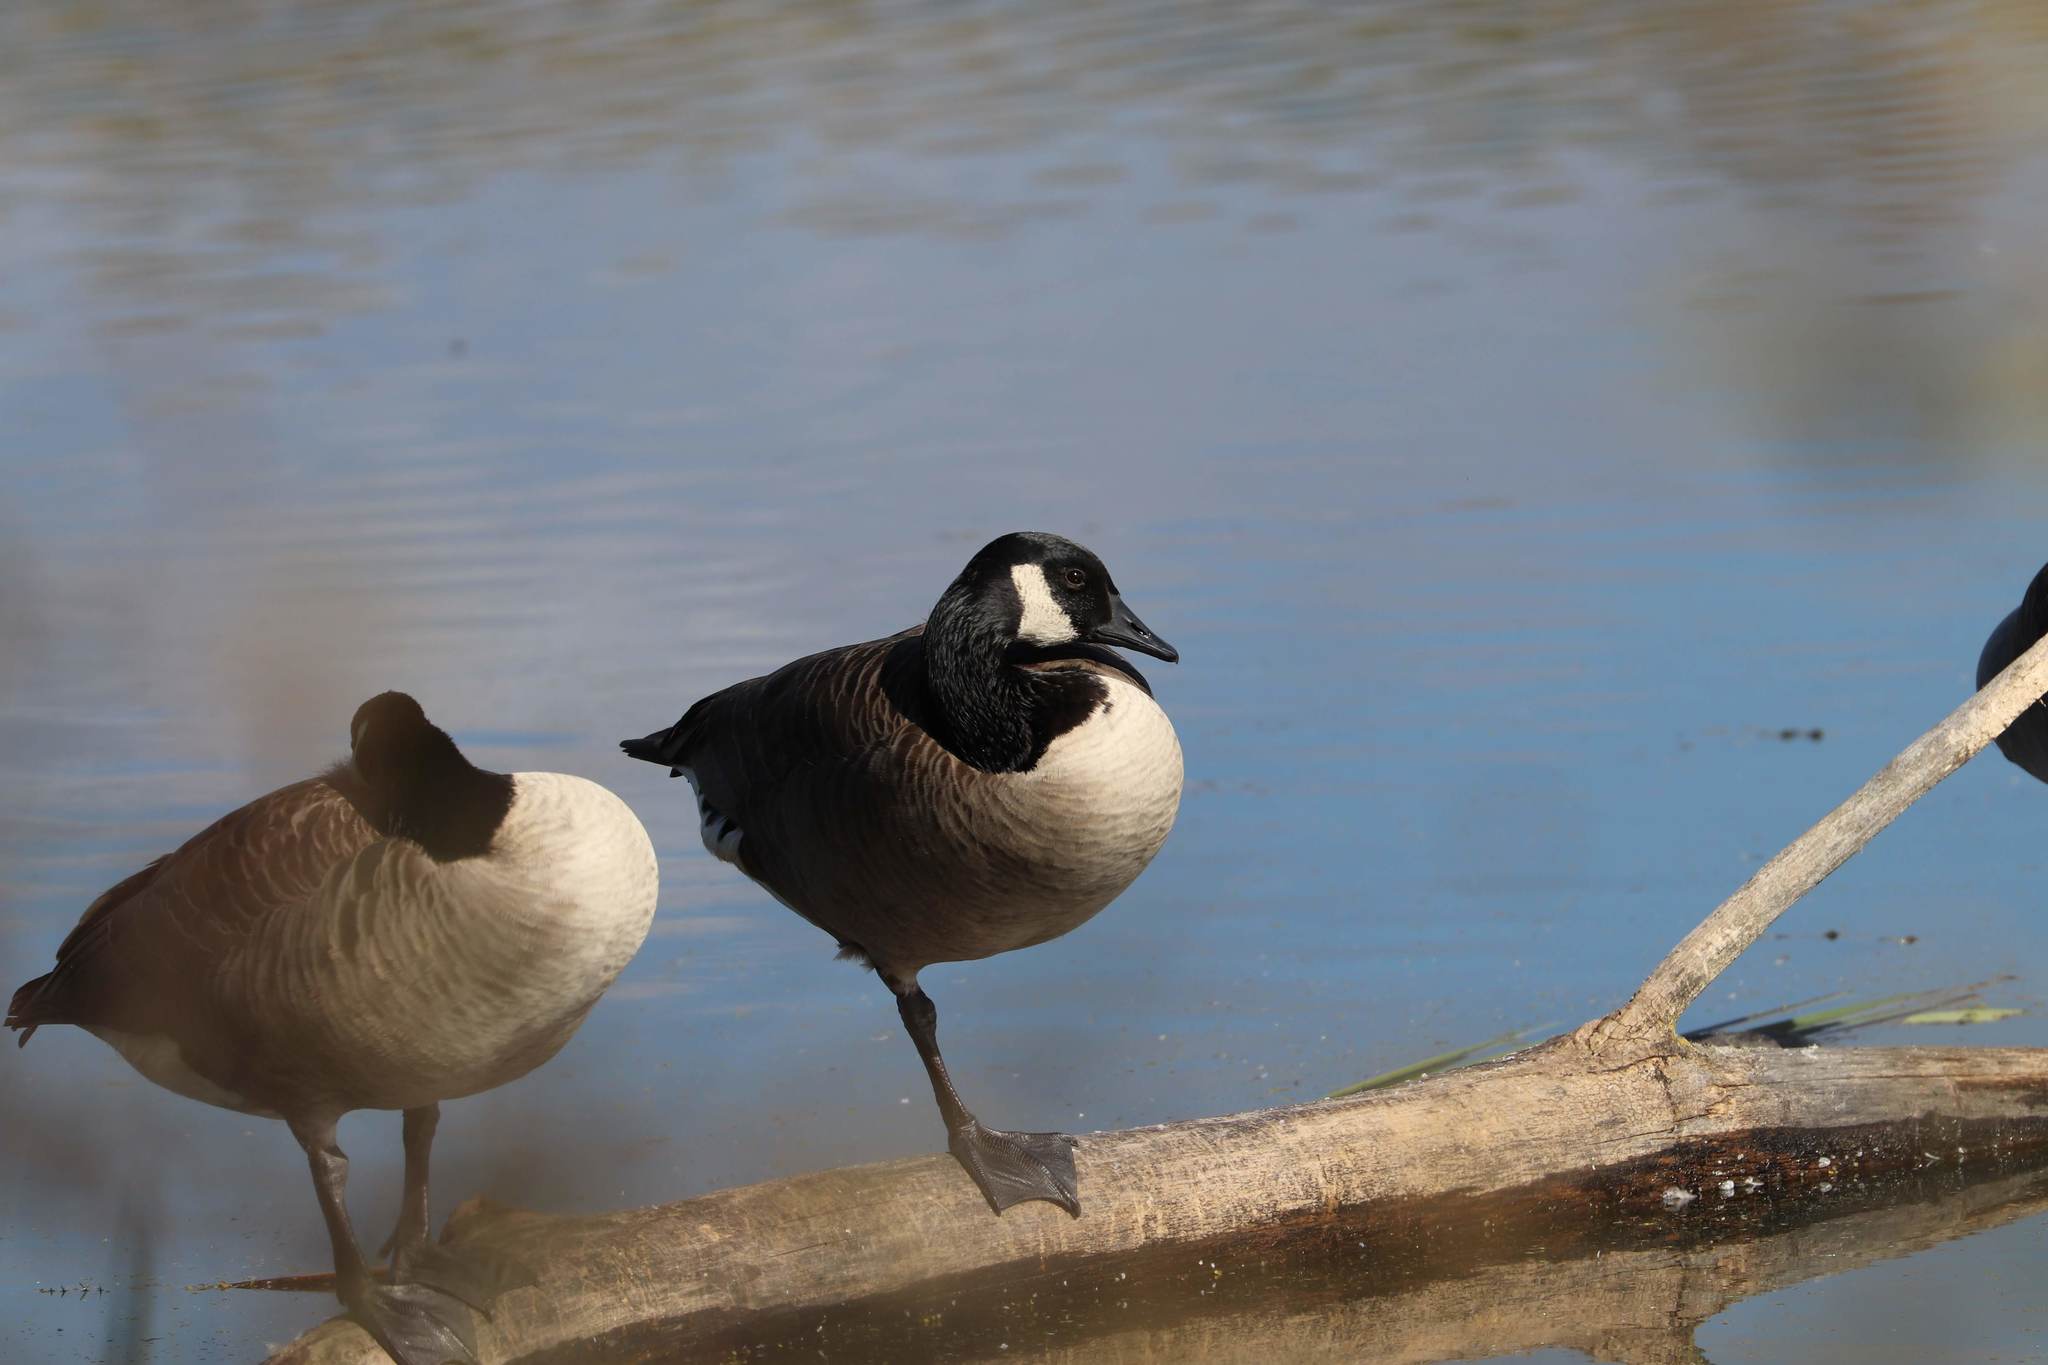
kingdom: Animalia
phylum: Chordata
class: Aves
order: Anseriformes
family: Anatidae
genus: Branta
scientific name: Branta canadensis
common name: Canada goose
